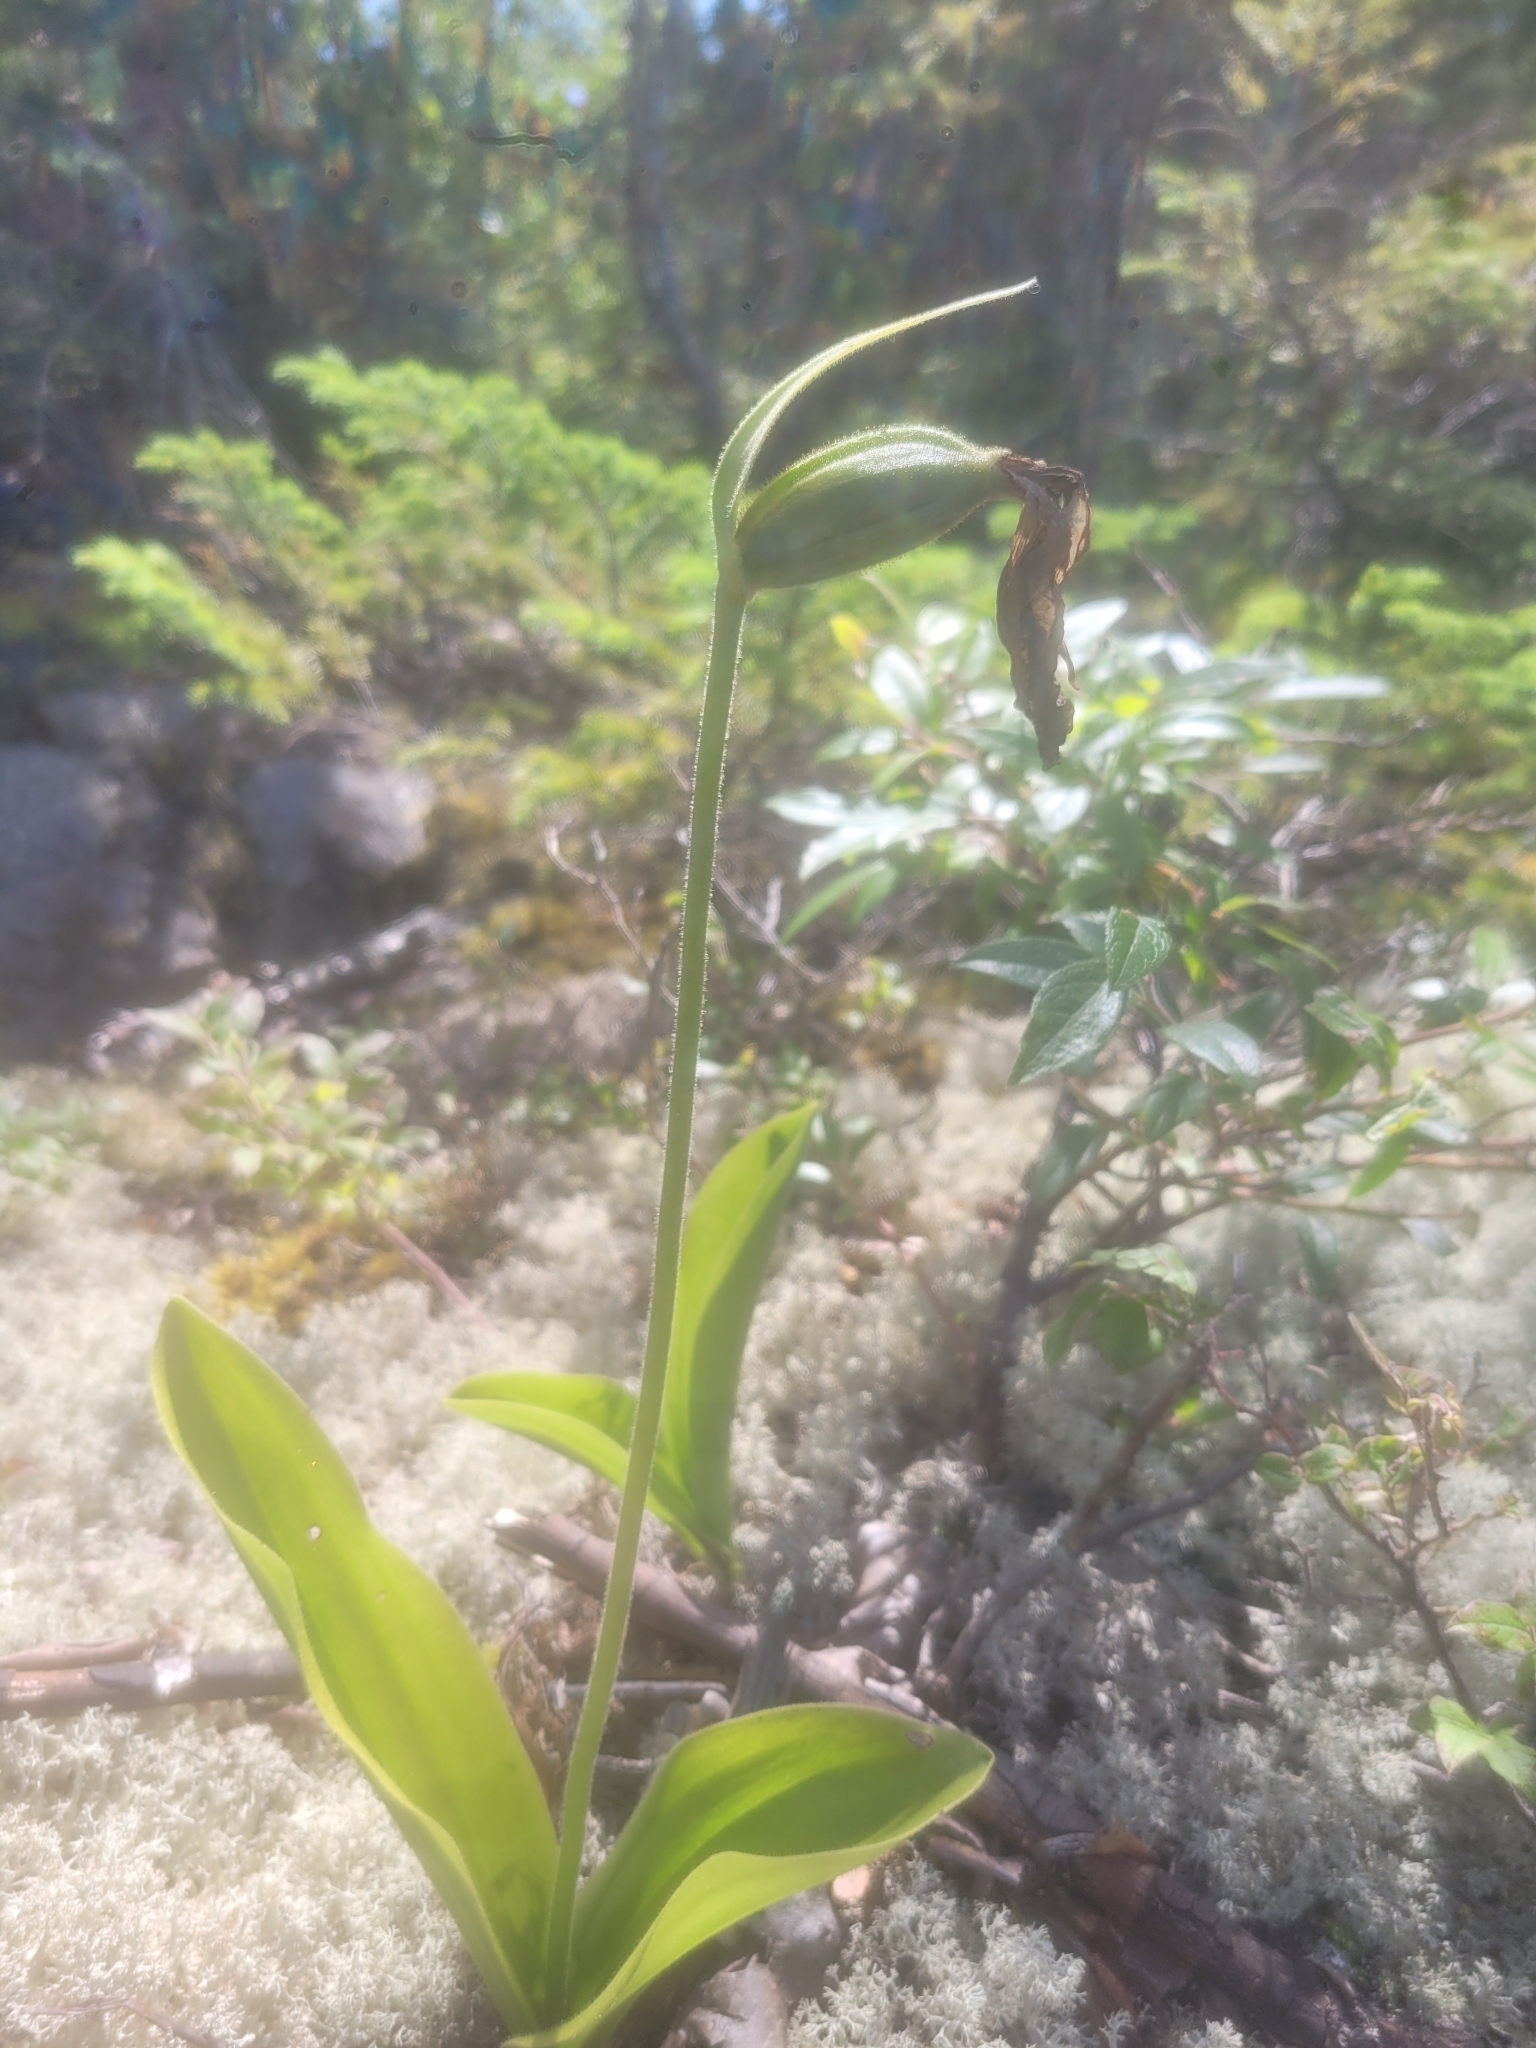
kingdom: Plantae
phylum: Tracheophyta
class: Liliopsida
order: Asparagales
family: Orchidaceae
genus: Cypripedium
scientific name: Cypripedium acaule
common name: Pink lady's-slipper
